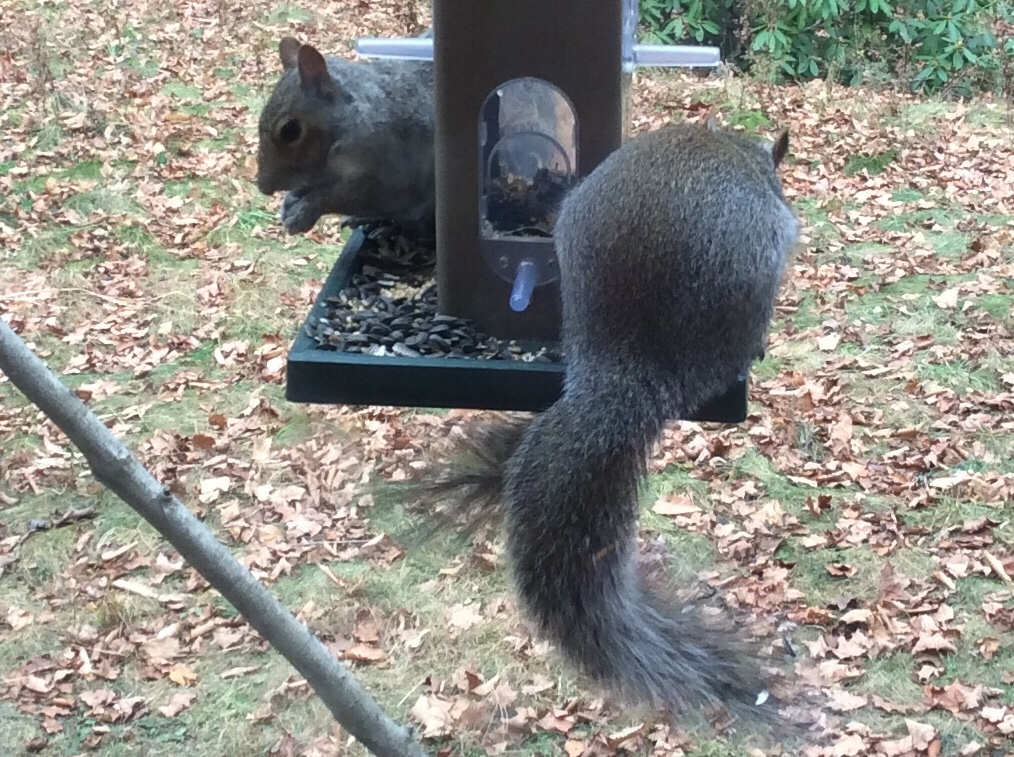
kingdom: Animalia
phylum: Chordata
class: Mammalia
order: Rodentia
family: Sciuridae
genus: Sciurus
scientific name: Sciurus carolinensis
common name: Eastern gray squirrel
